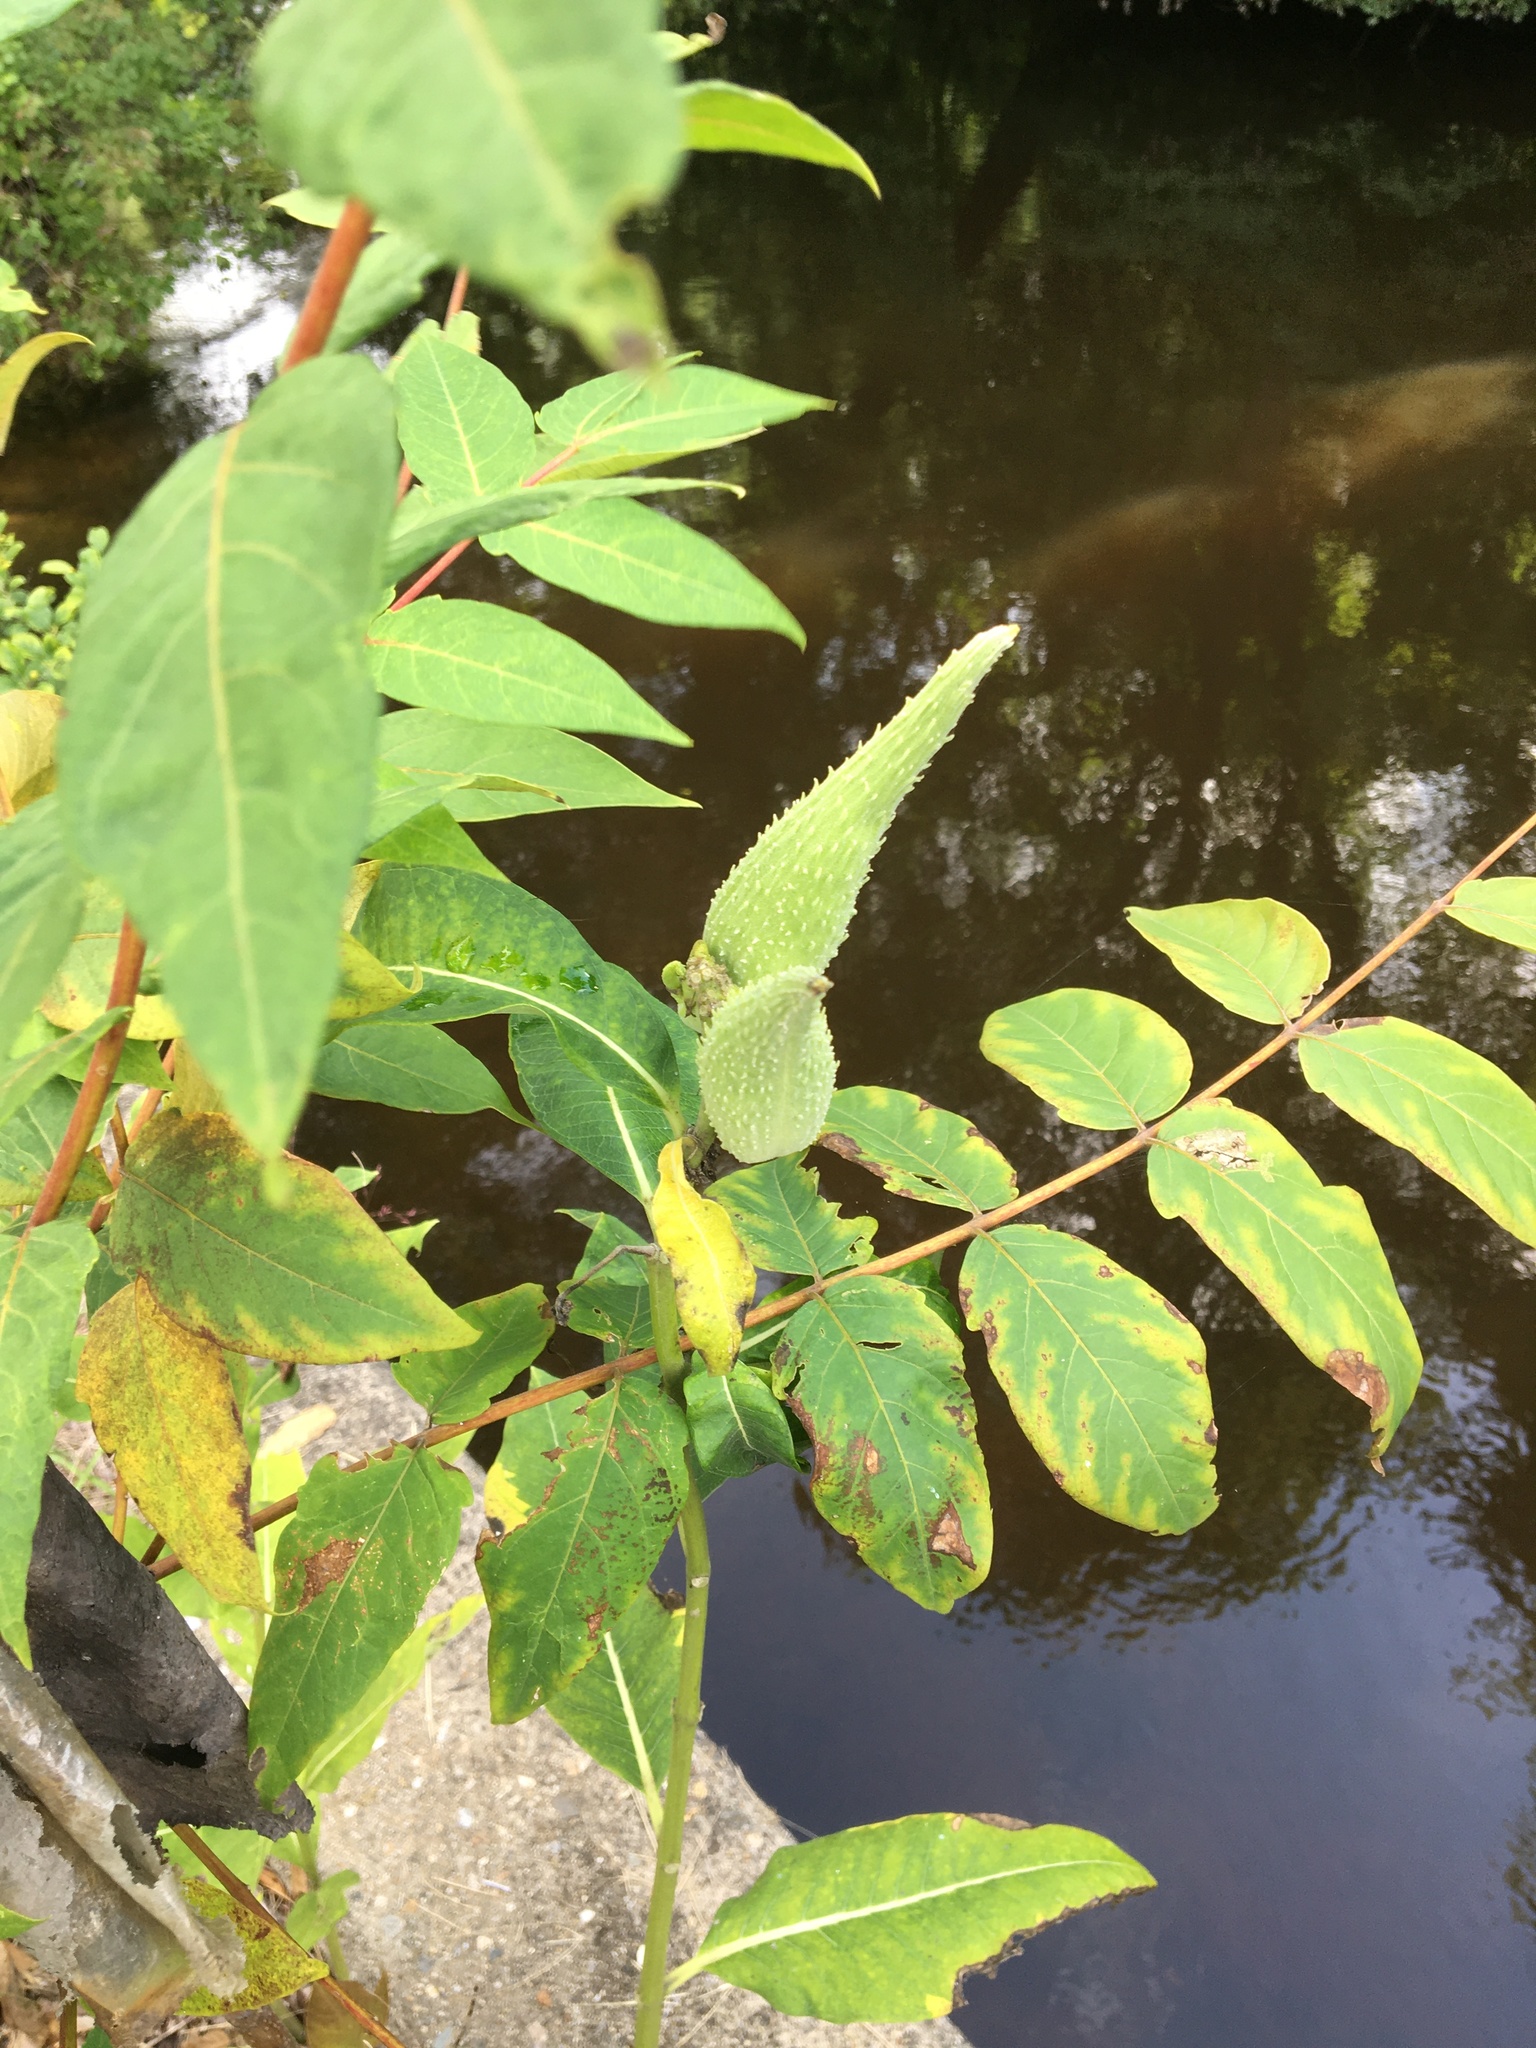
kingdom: Plantae
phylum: Tracheophyta
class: Magnoliopsida
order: Gentianales
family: Apocynaceae
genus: Asclepias
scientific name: Asclepias syriaca
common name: Common milkweed
